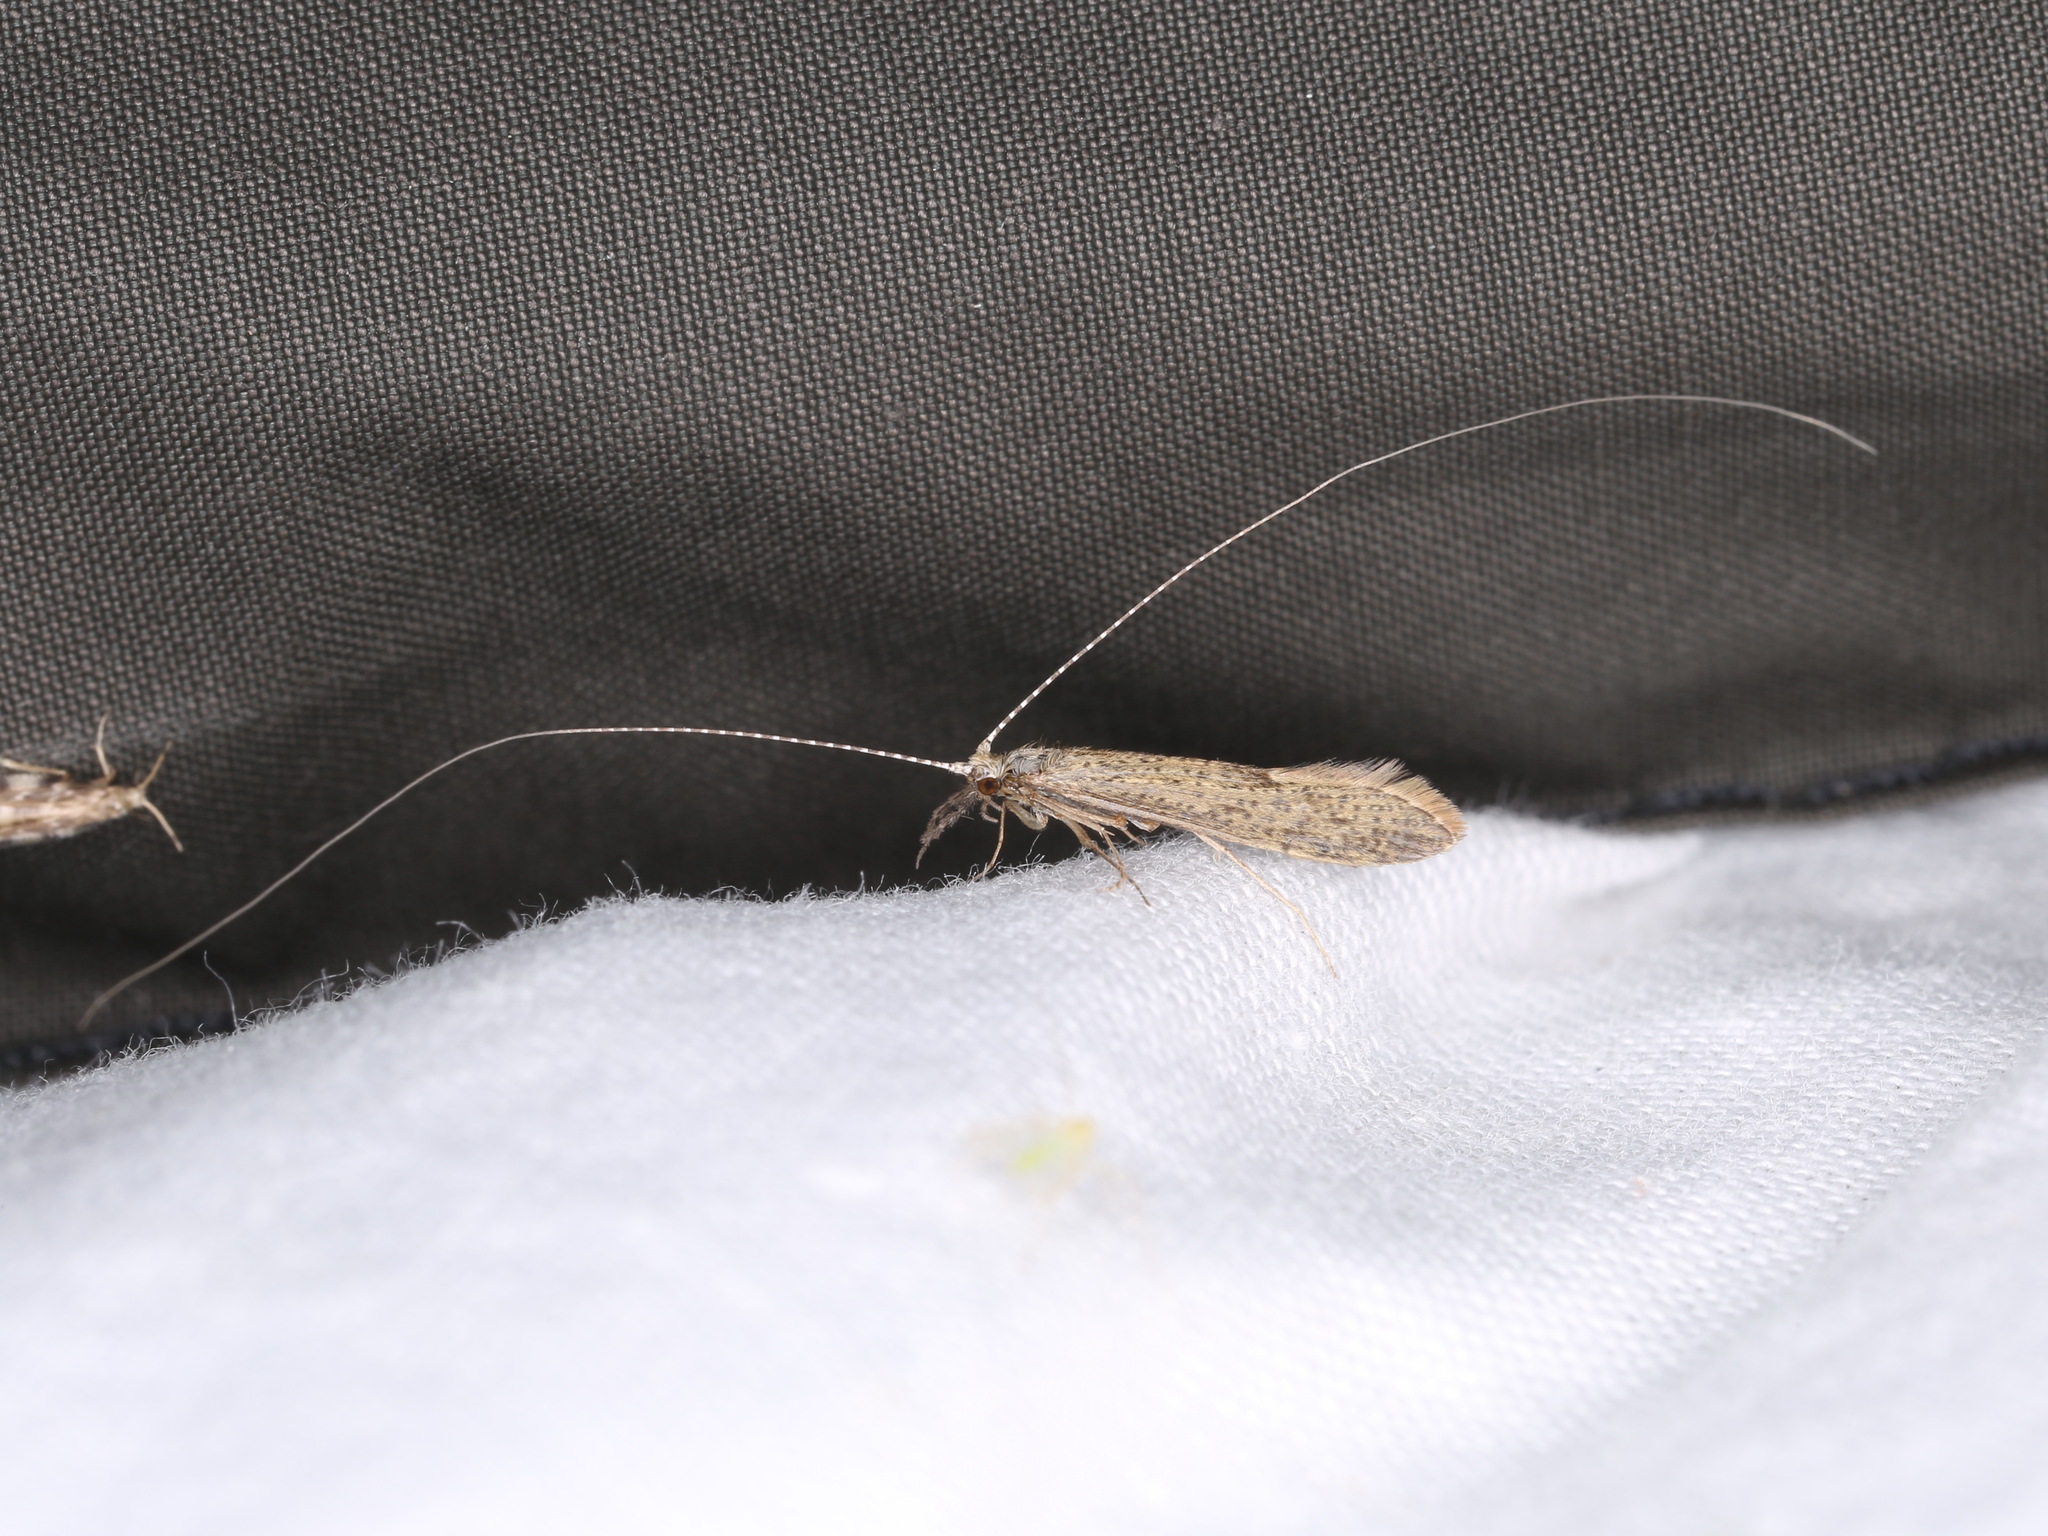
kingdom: Animalia
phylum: Arthropoda
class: Insecta
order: Trichoptera
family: Leptoceridae
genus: Leptocerus
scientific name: Leptocerus tineiformis
